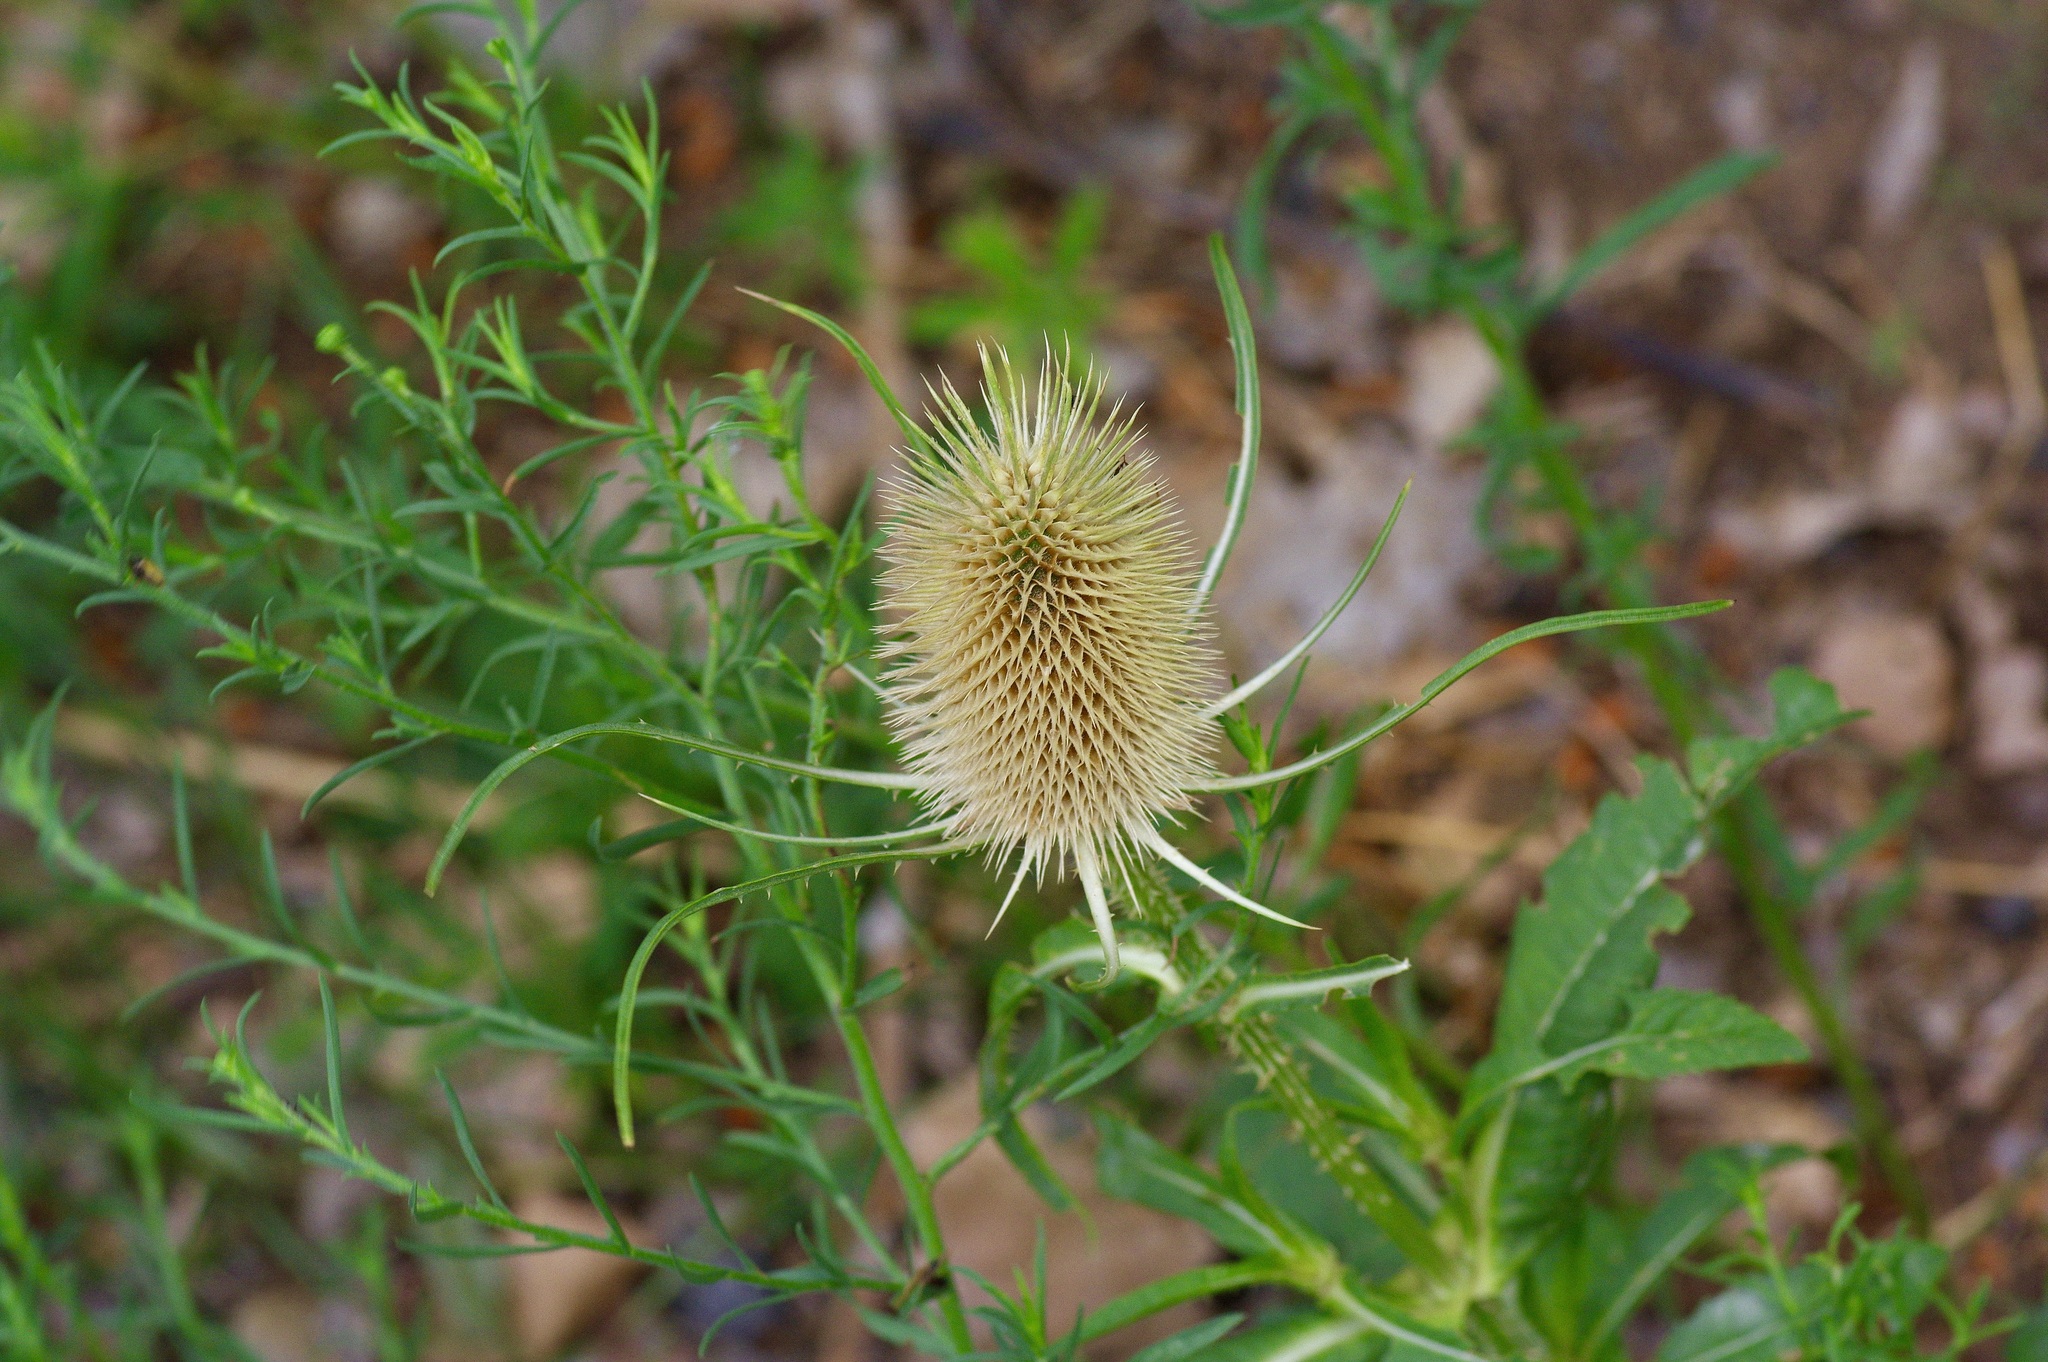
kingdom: Plantae
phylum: Tracheophyta
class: Magnoliopsida
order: Dipsacales
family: Caprifoliaceae
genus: Dipsacus
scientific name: Dipsacus fullonum
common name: Teasel
